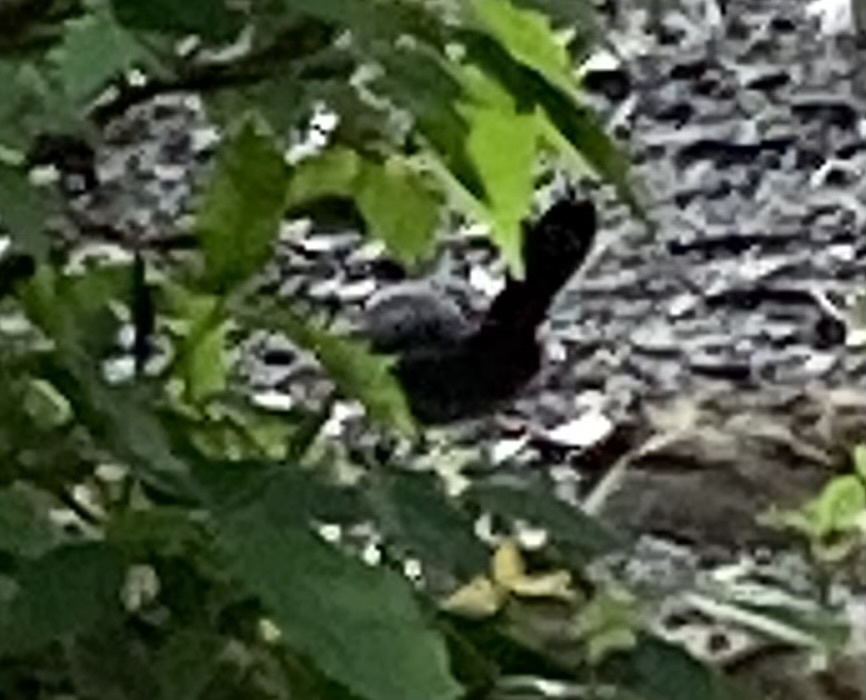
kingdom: Animalia
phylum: Chordata
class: Aves
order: Passeriformes
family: Mimidae
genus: Dumetella
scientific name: Dumetella carolinensis
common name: Gray catbird
